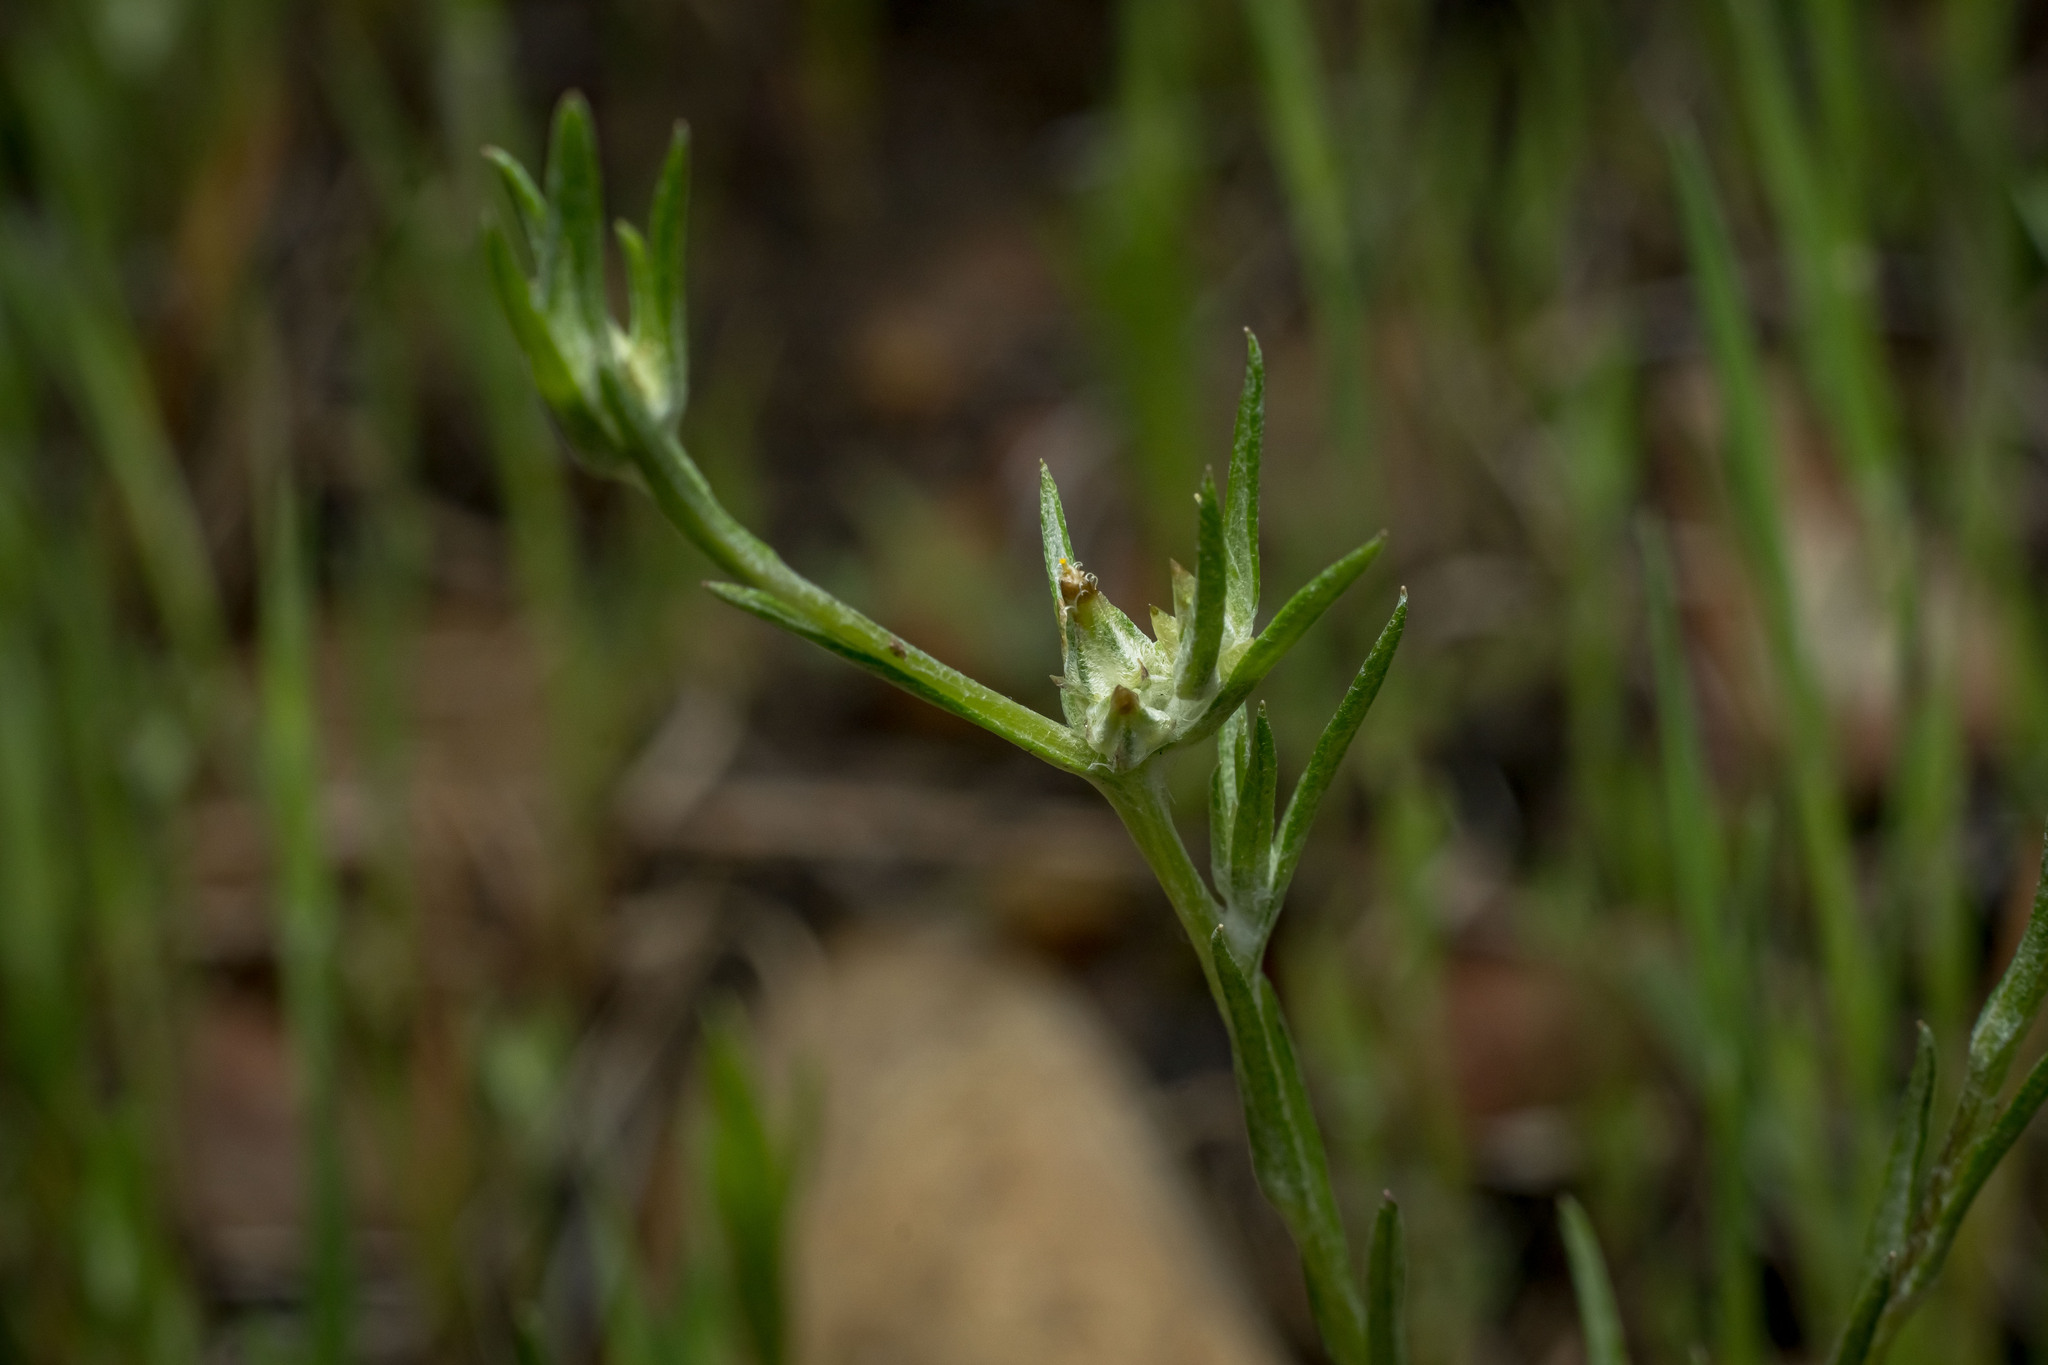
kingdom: Plantae
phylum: Tracheophyta
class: Magnoliopsida
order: Asterales
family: Asteraceae
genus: Logfia
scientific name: Logfia gallica
